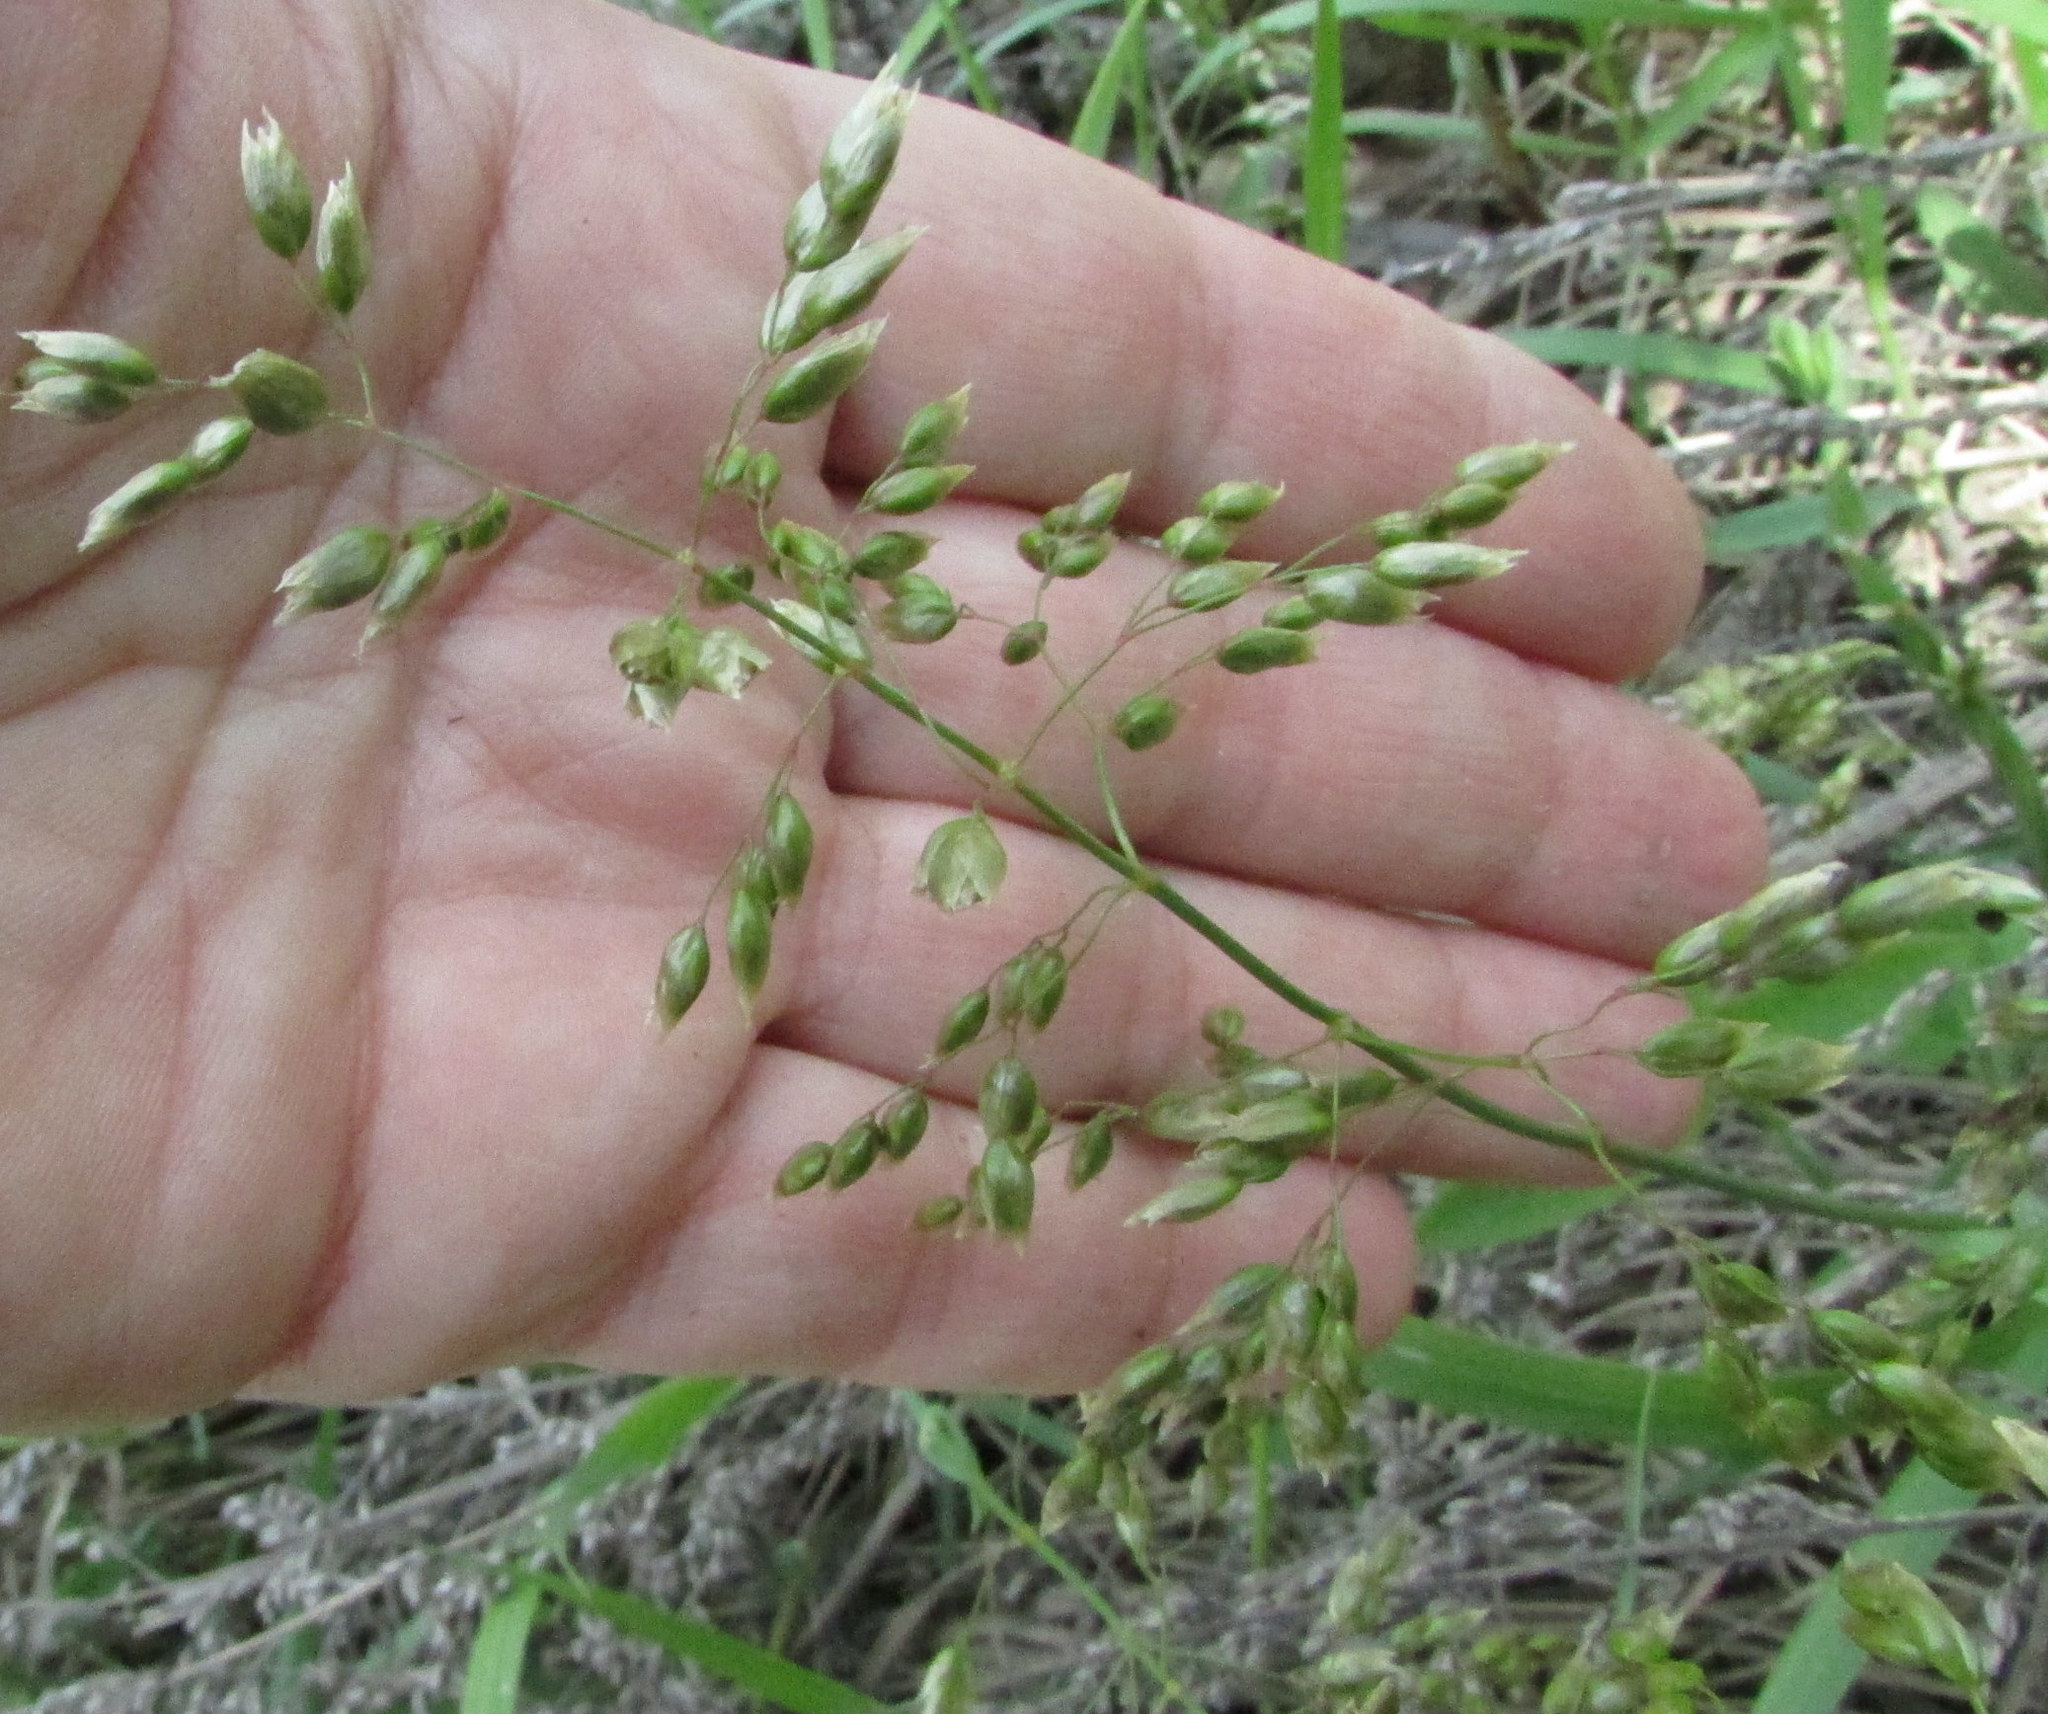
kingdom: Plantae
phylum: Tracheophyta
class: Liliopsida
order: Poales
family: Poaceae
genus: Anthoxanthum
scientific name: Anthoxanthum nitens
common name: Holy grass
